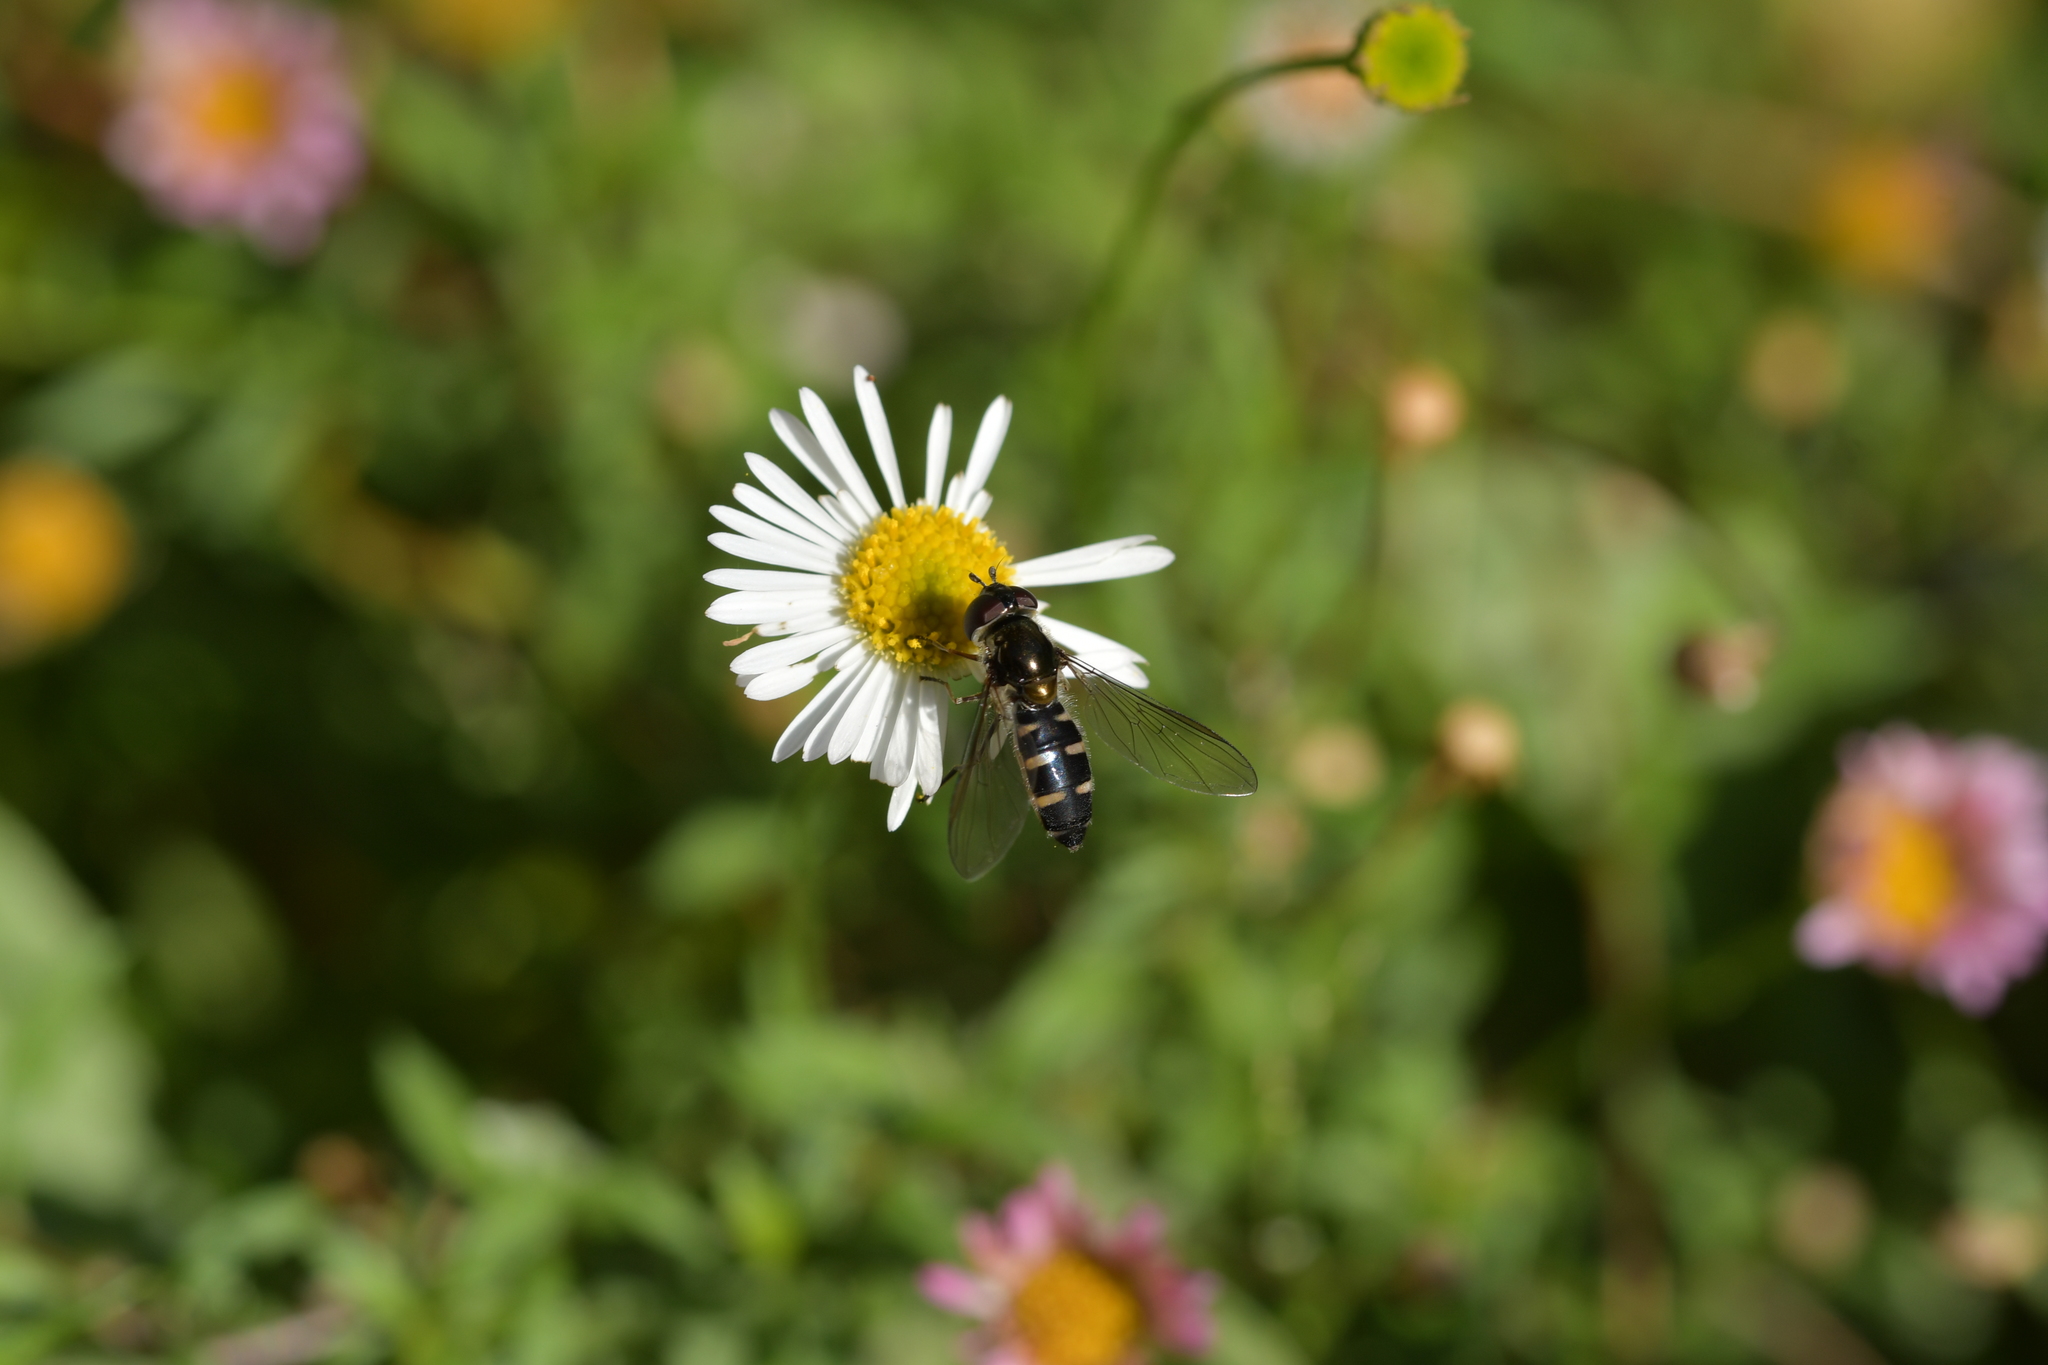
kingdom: Animalia
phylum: Arthropoda
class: Insecta
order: Diptera
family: Syrphidae
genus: Melangyna
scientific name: Melangyna novaezelandiae
